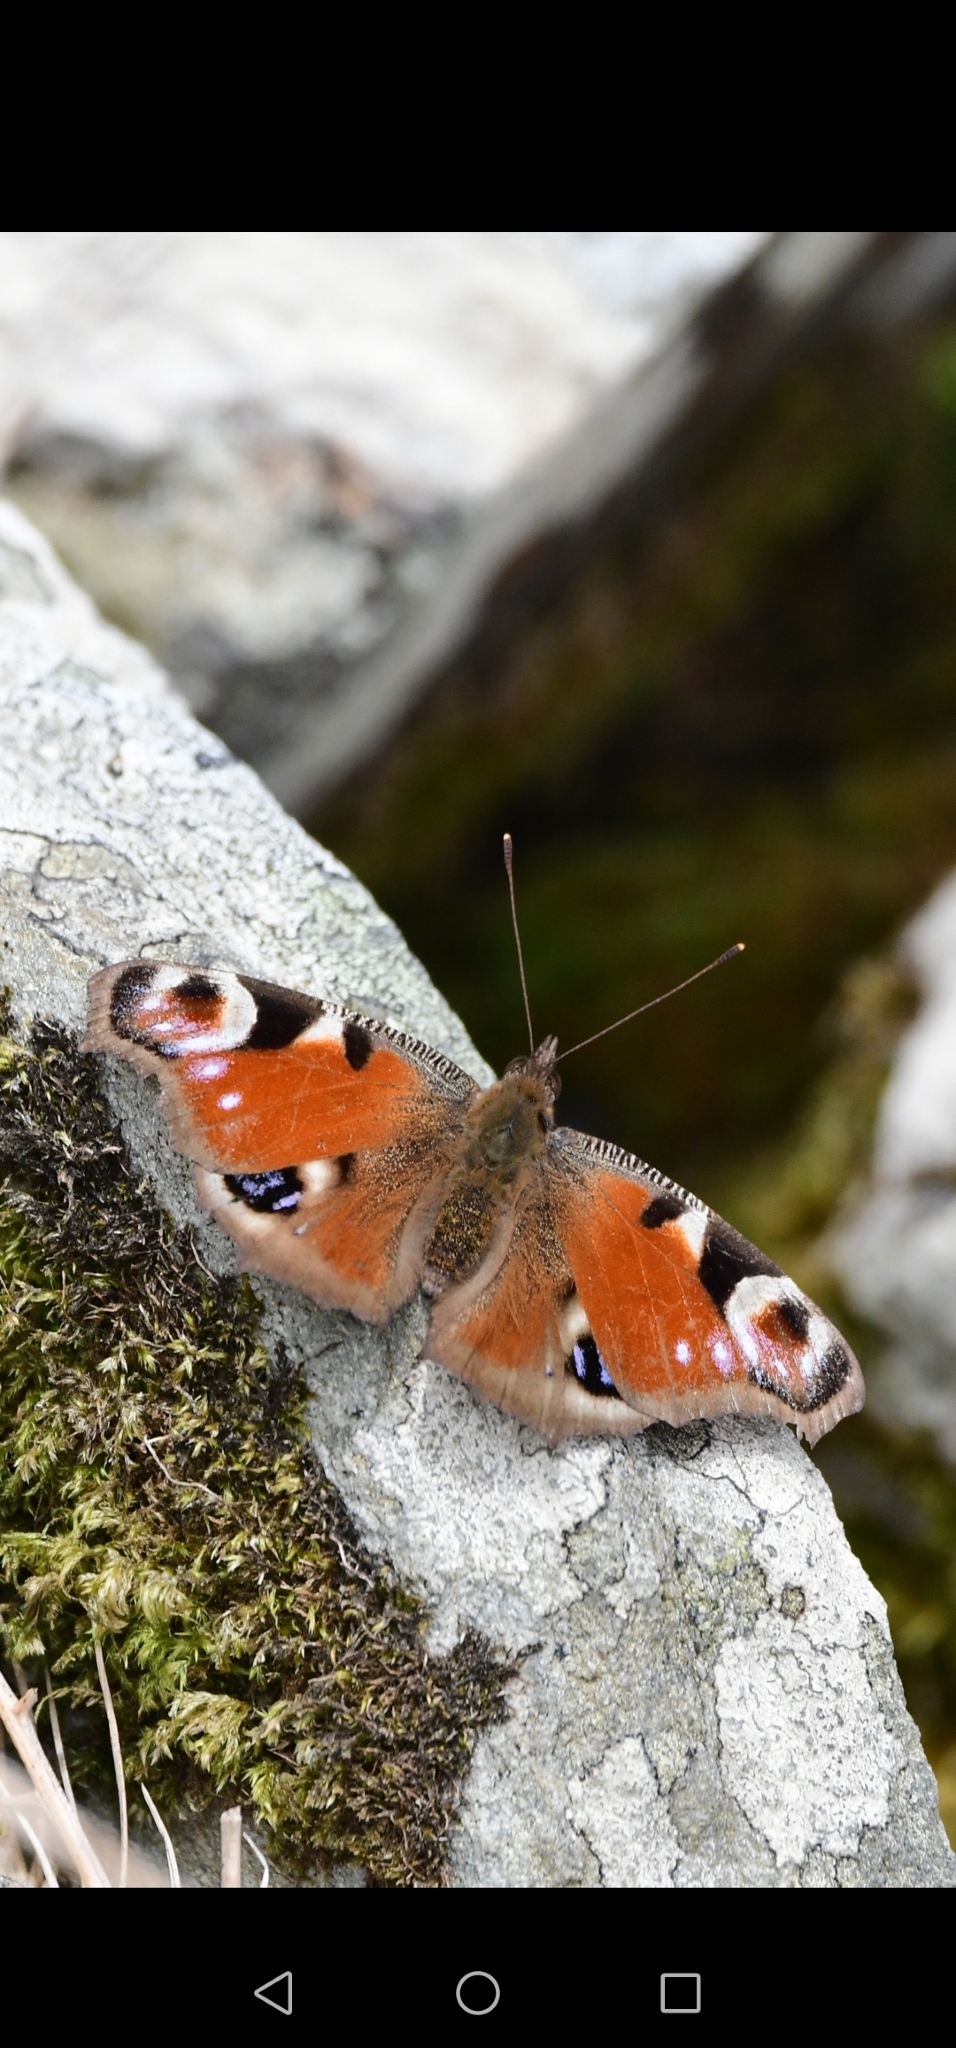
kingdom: Animalia
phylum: Arthropoda
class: Insecta
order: Lepidoptera
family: Nymphalidae
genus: Aglais
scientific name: Aglais io
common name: Peacock
